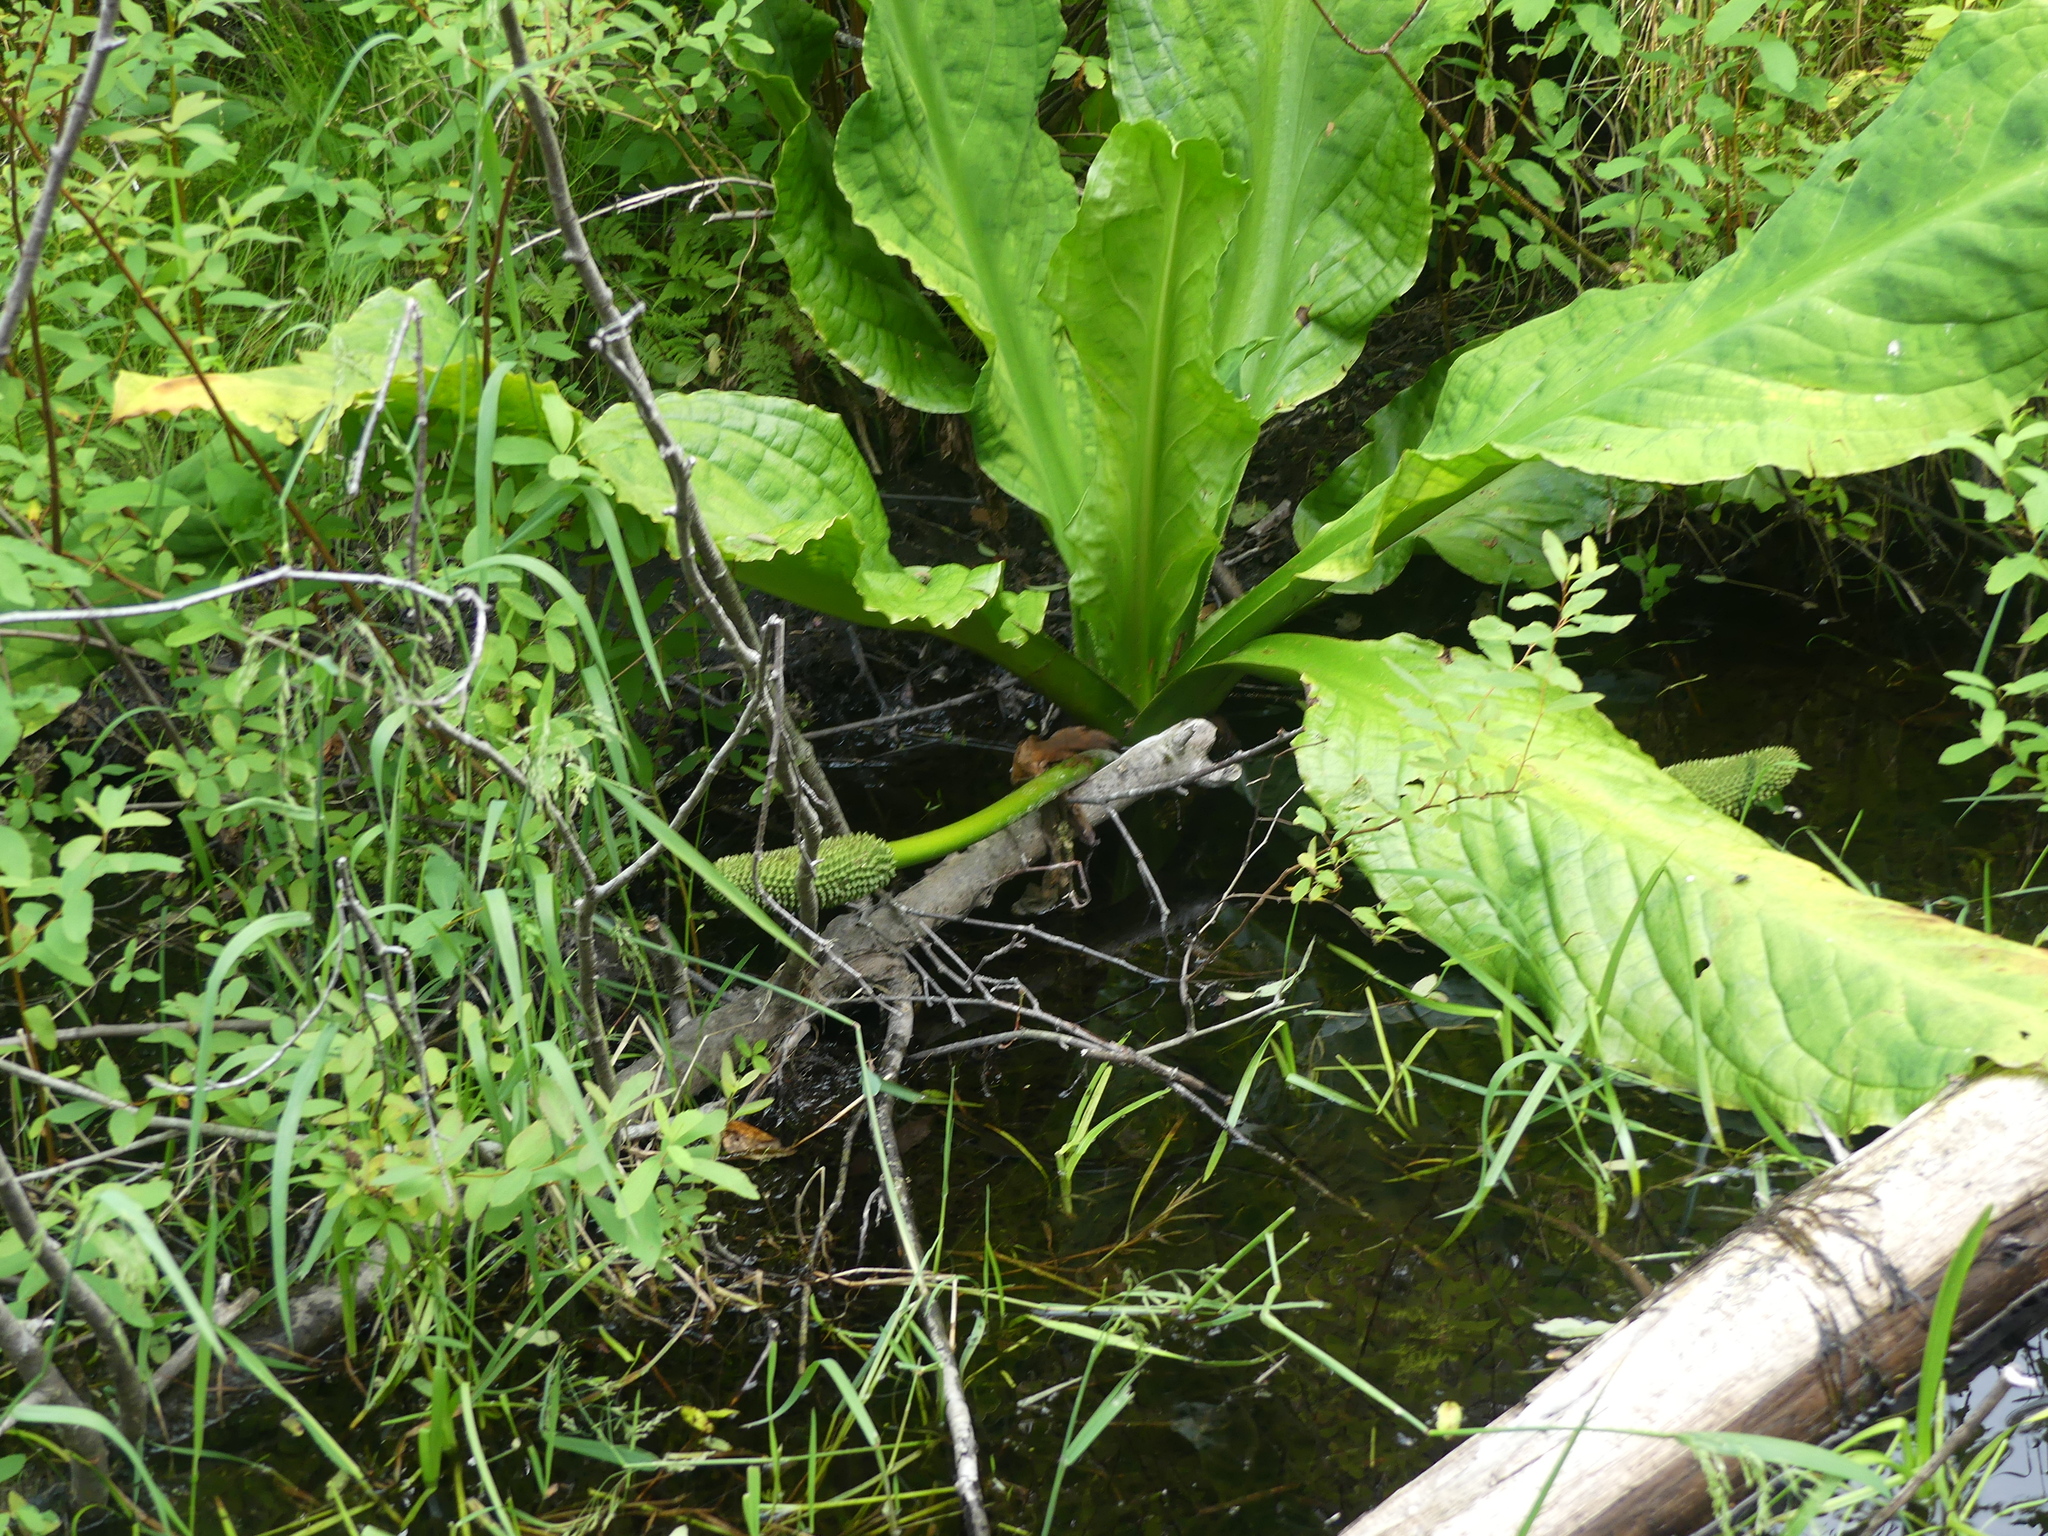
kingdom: Plantae
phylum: Tracheophyta
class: Liliopsida
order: Alismatales
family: Araceae
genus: Lysichiton
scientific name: Lysichiton americanus
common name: American skunk cabbage
